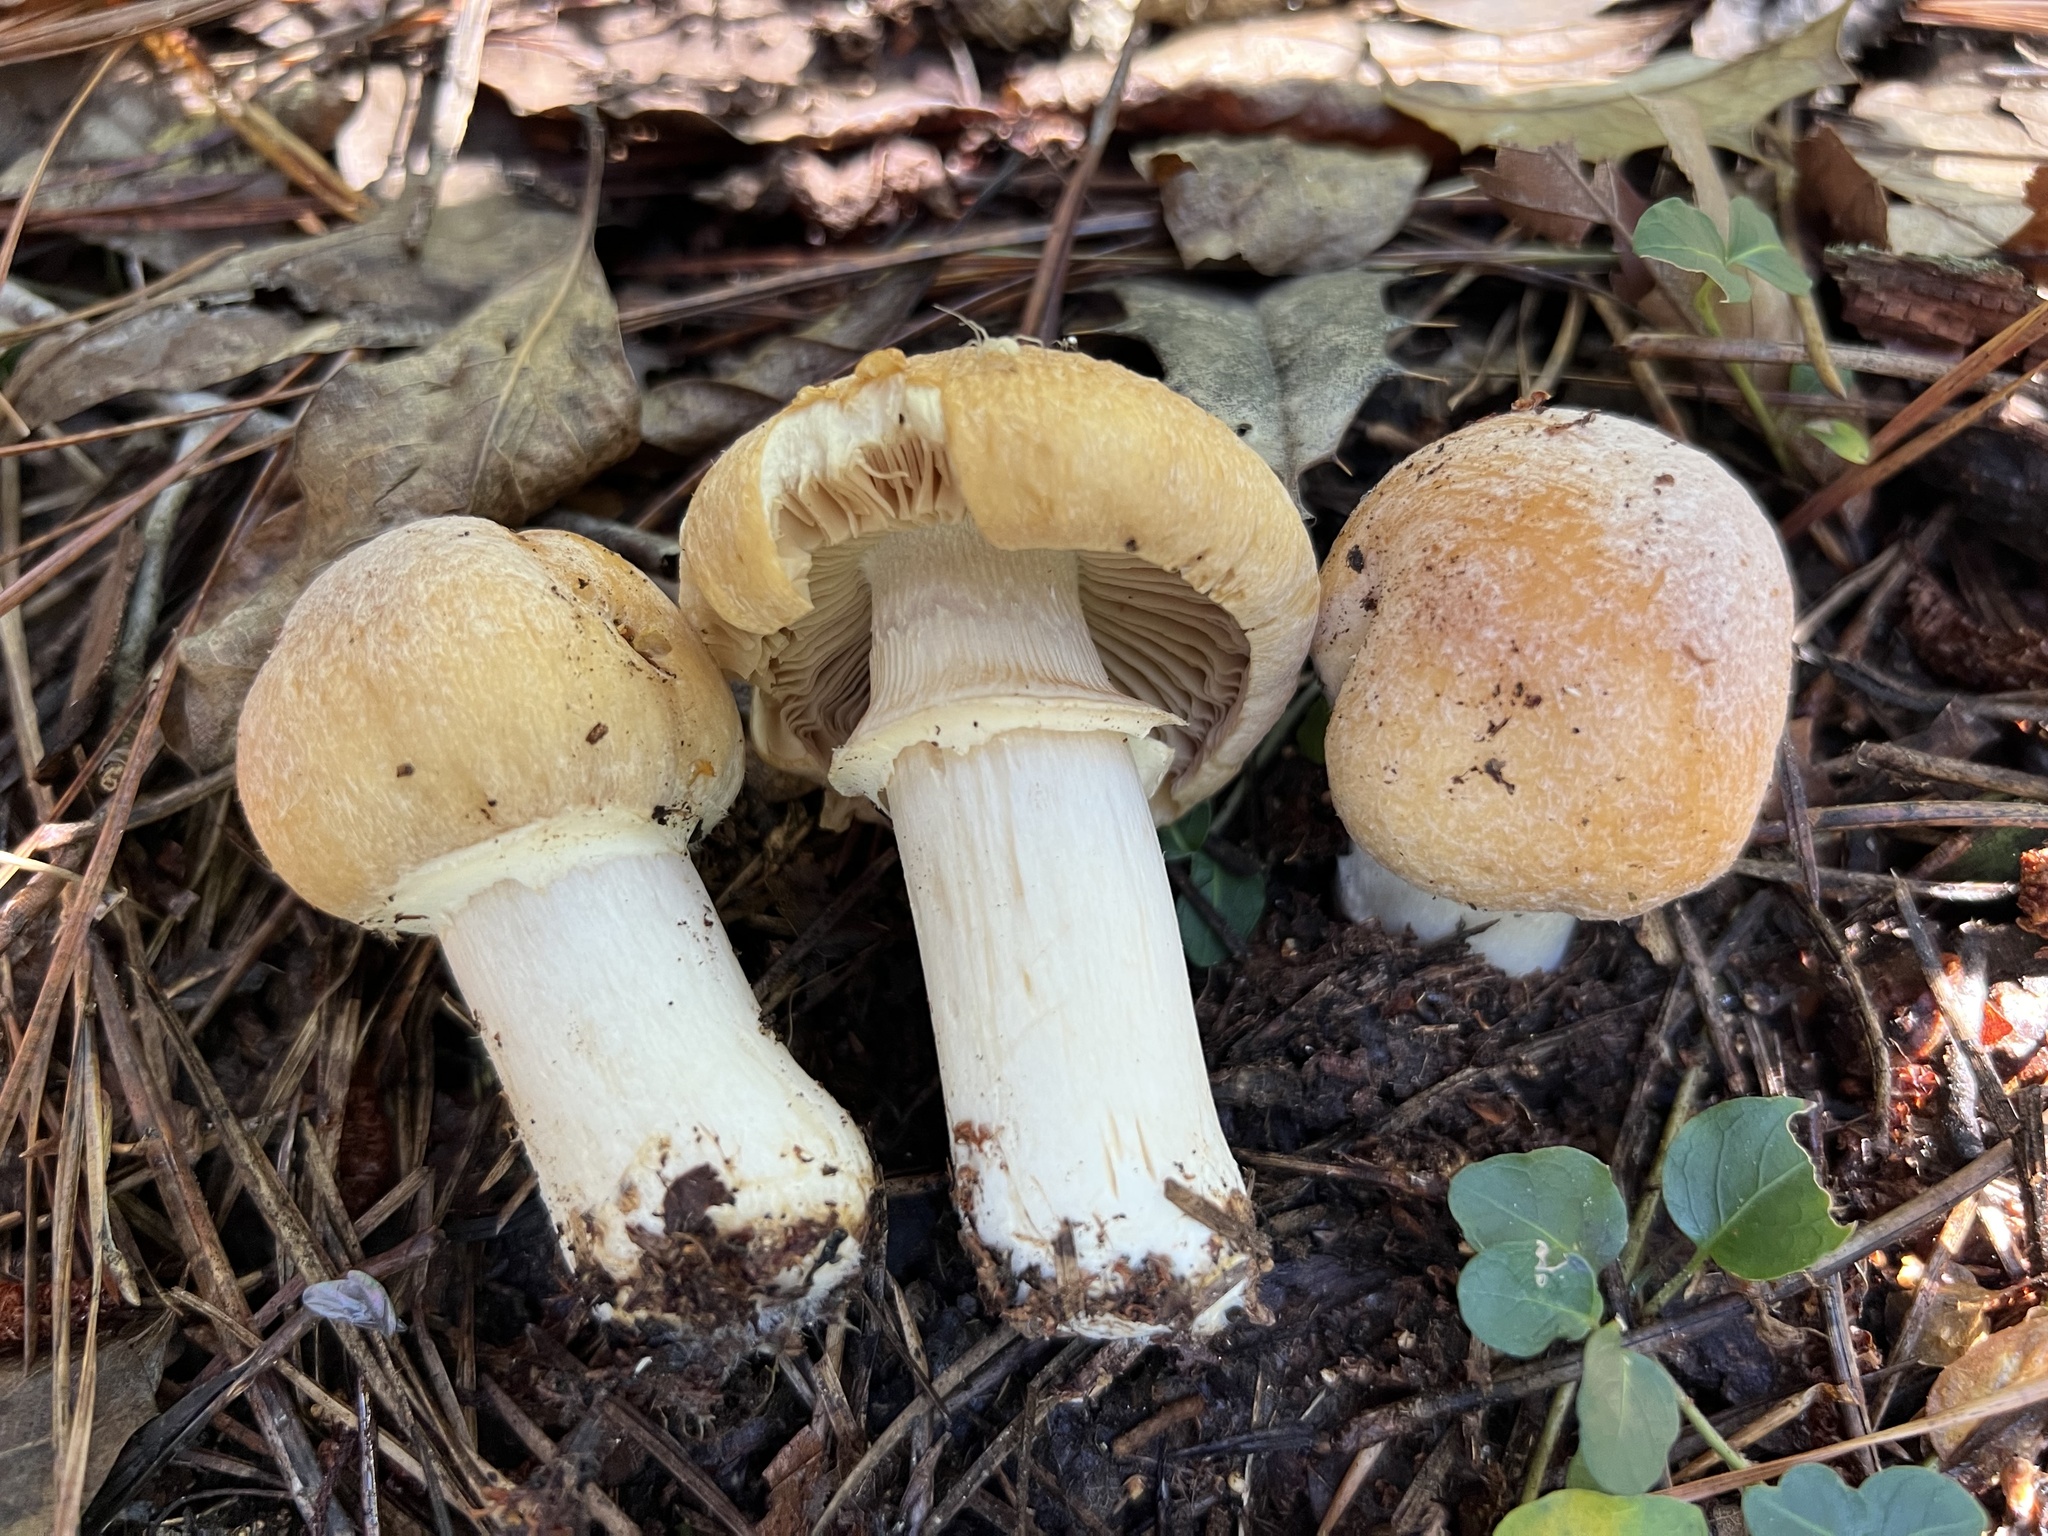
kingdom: Fungi
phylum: Basidiomycota
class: Agaricomycetes
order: Agaricales
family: Cortinariaceae
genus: Cortinarius
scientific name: Cortinarius caperatus
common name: The gypsy
